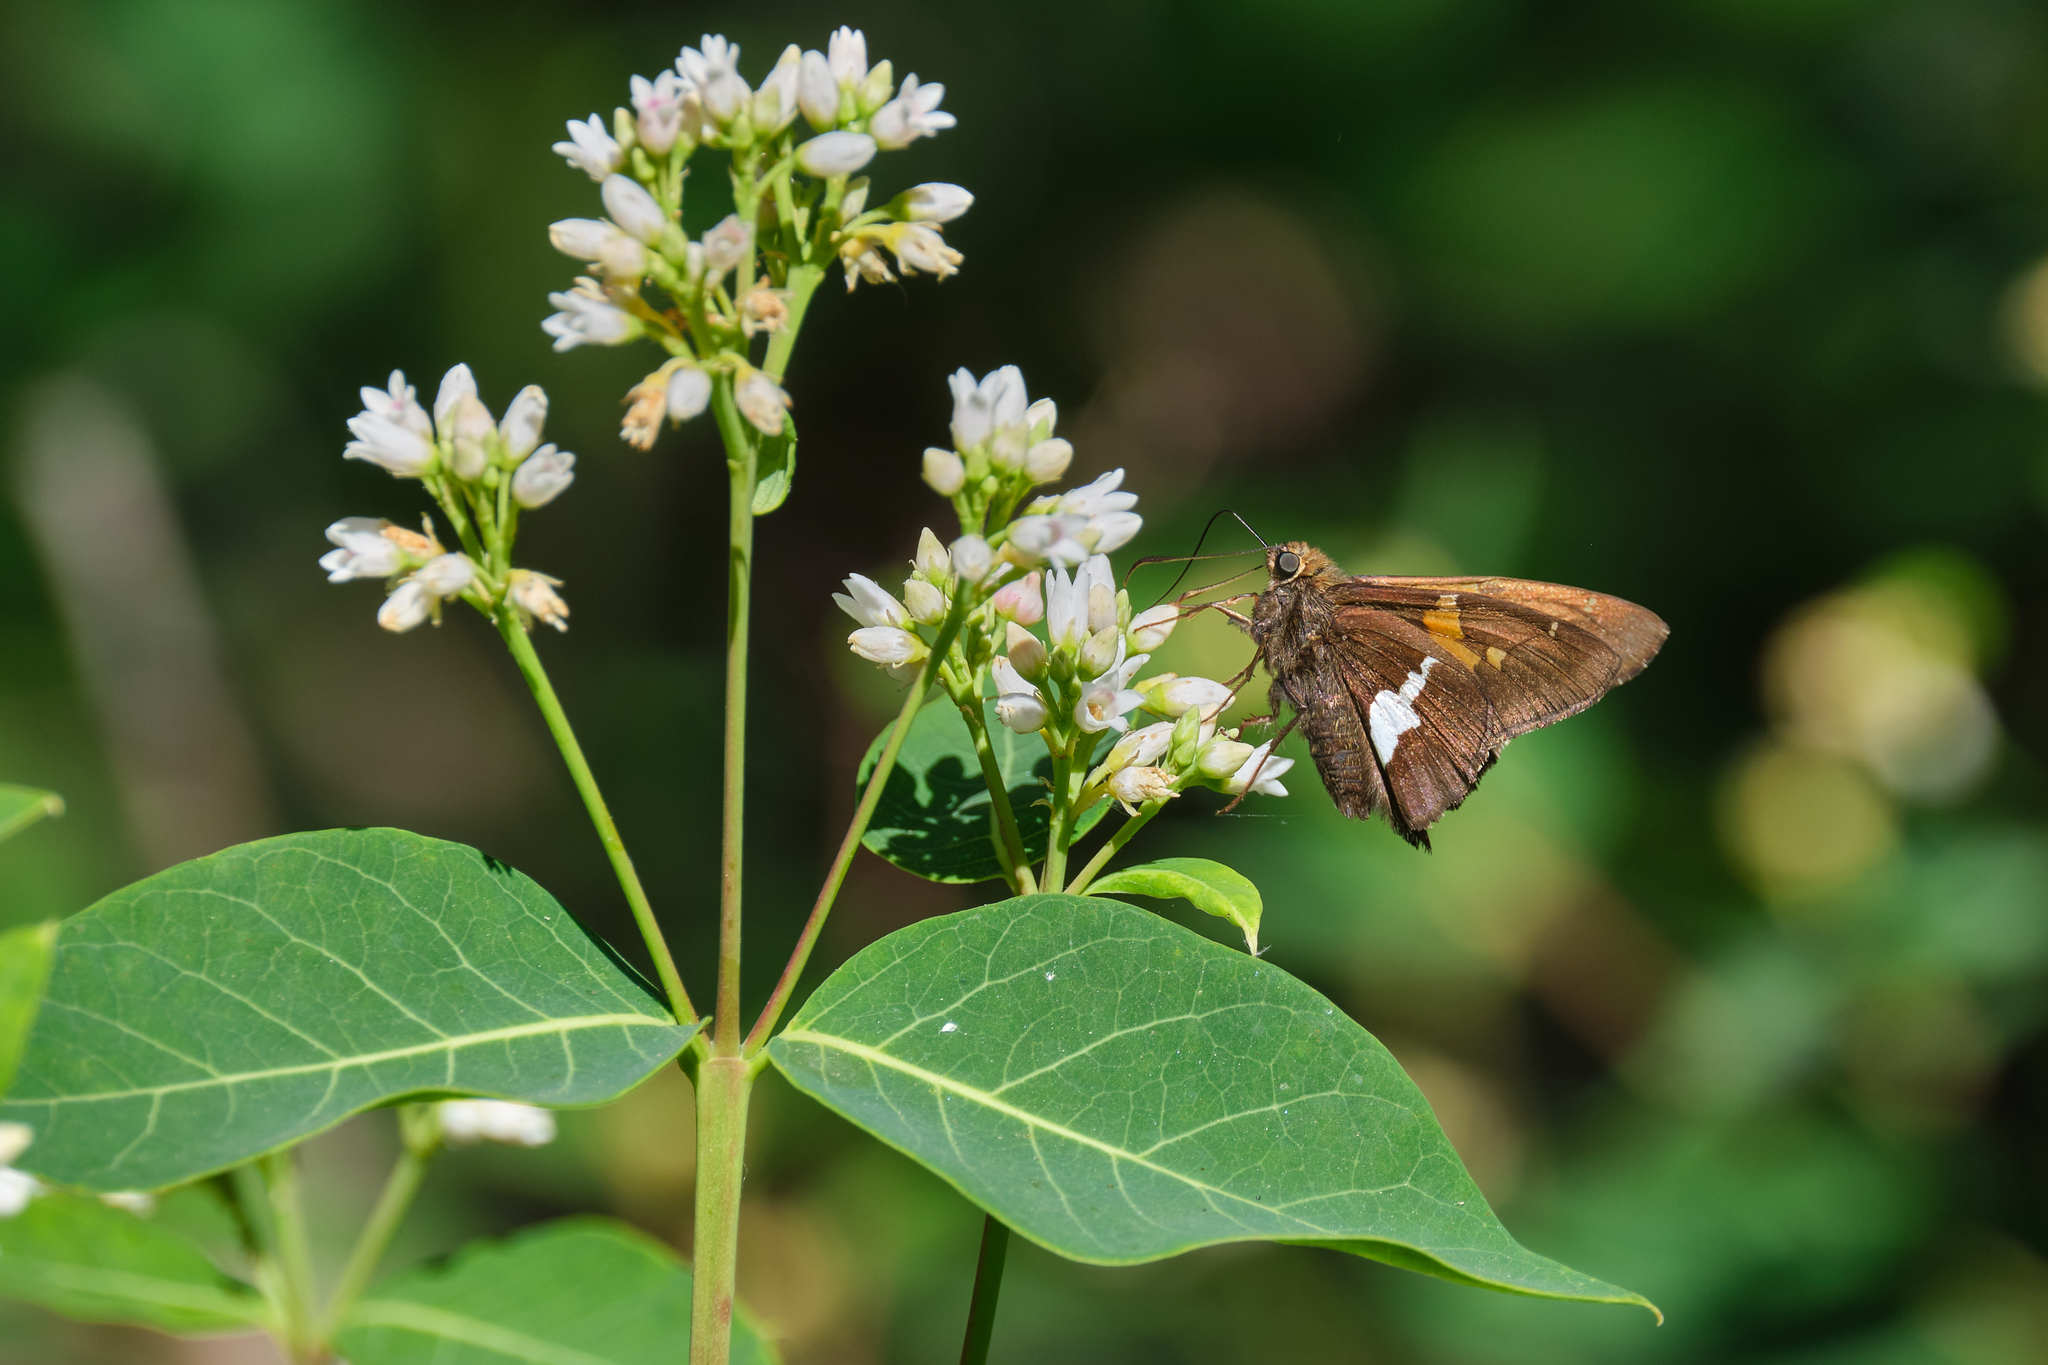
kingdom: Animalia
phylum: Arthropoda
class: Insecta
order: Lepidoptera
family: Hesperiidae
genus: Epargyreus
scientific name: Epargyreus clarus
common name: Silver-spotted skipper
